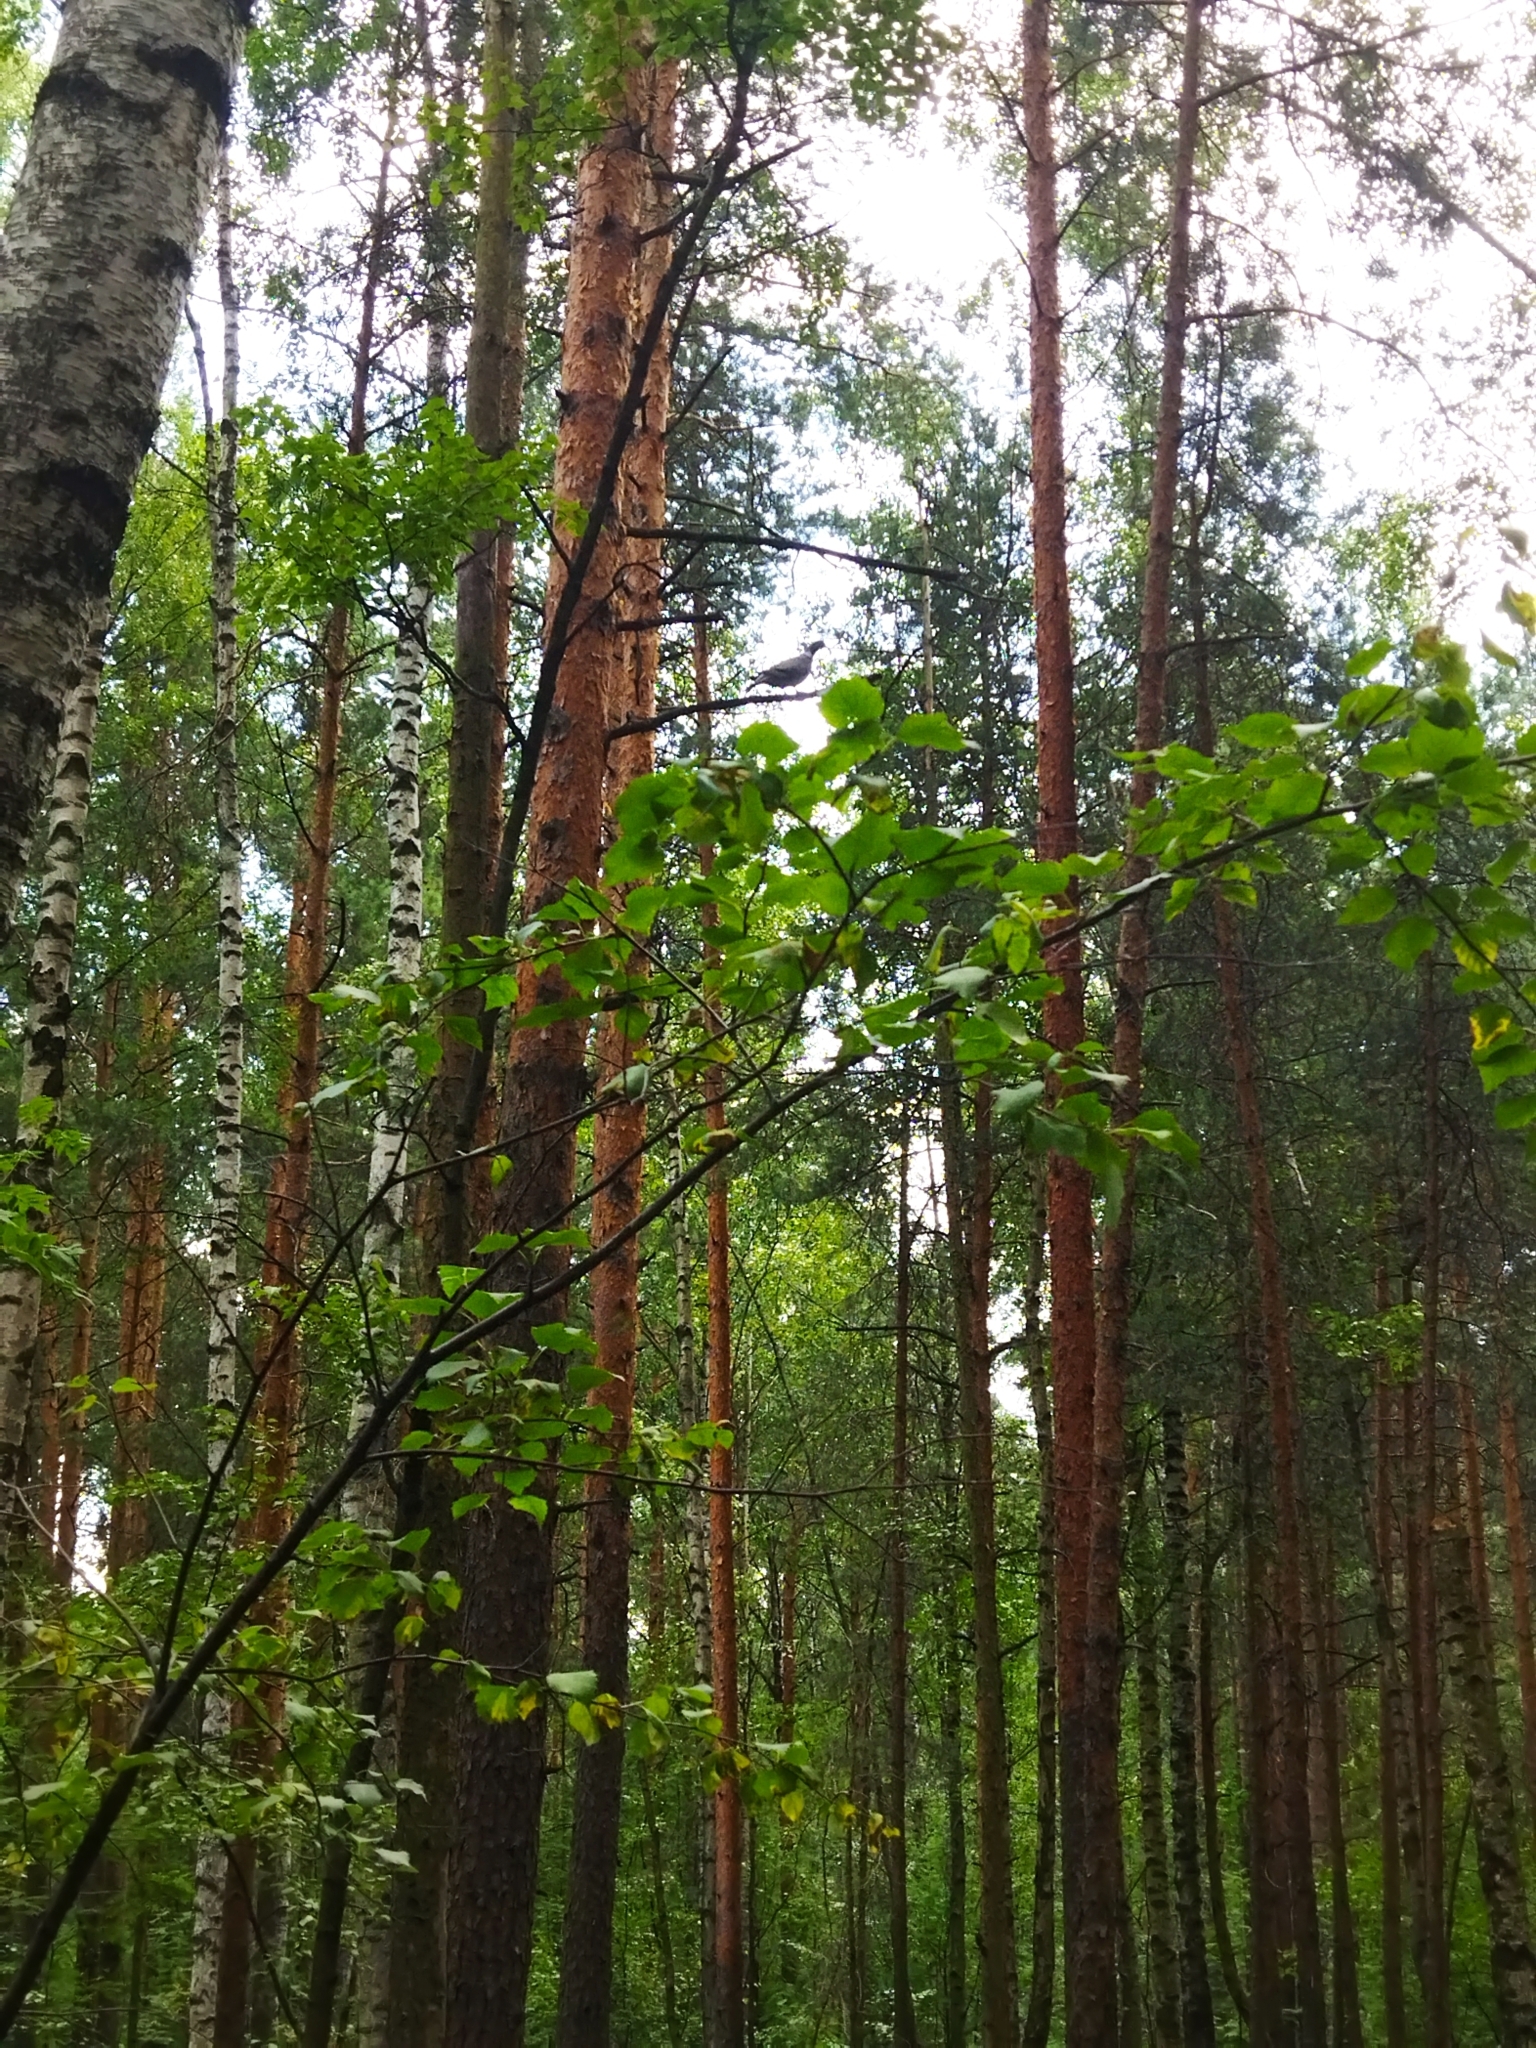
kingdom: Animalia
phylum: Chordata
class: Aves
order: Columbiformes
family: Columbidae
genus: Columba
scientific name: Columba palumbus
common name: Common wood pigeon
